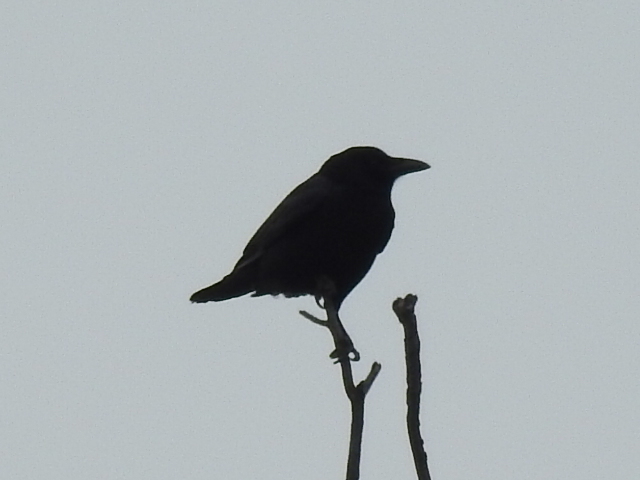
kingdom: Animalia
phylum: Chordata
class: Aves
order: Passeriformes
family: Corvidae
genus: Corvus
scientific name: Corvus brachyrhynchos
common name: American crow
